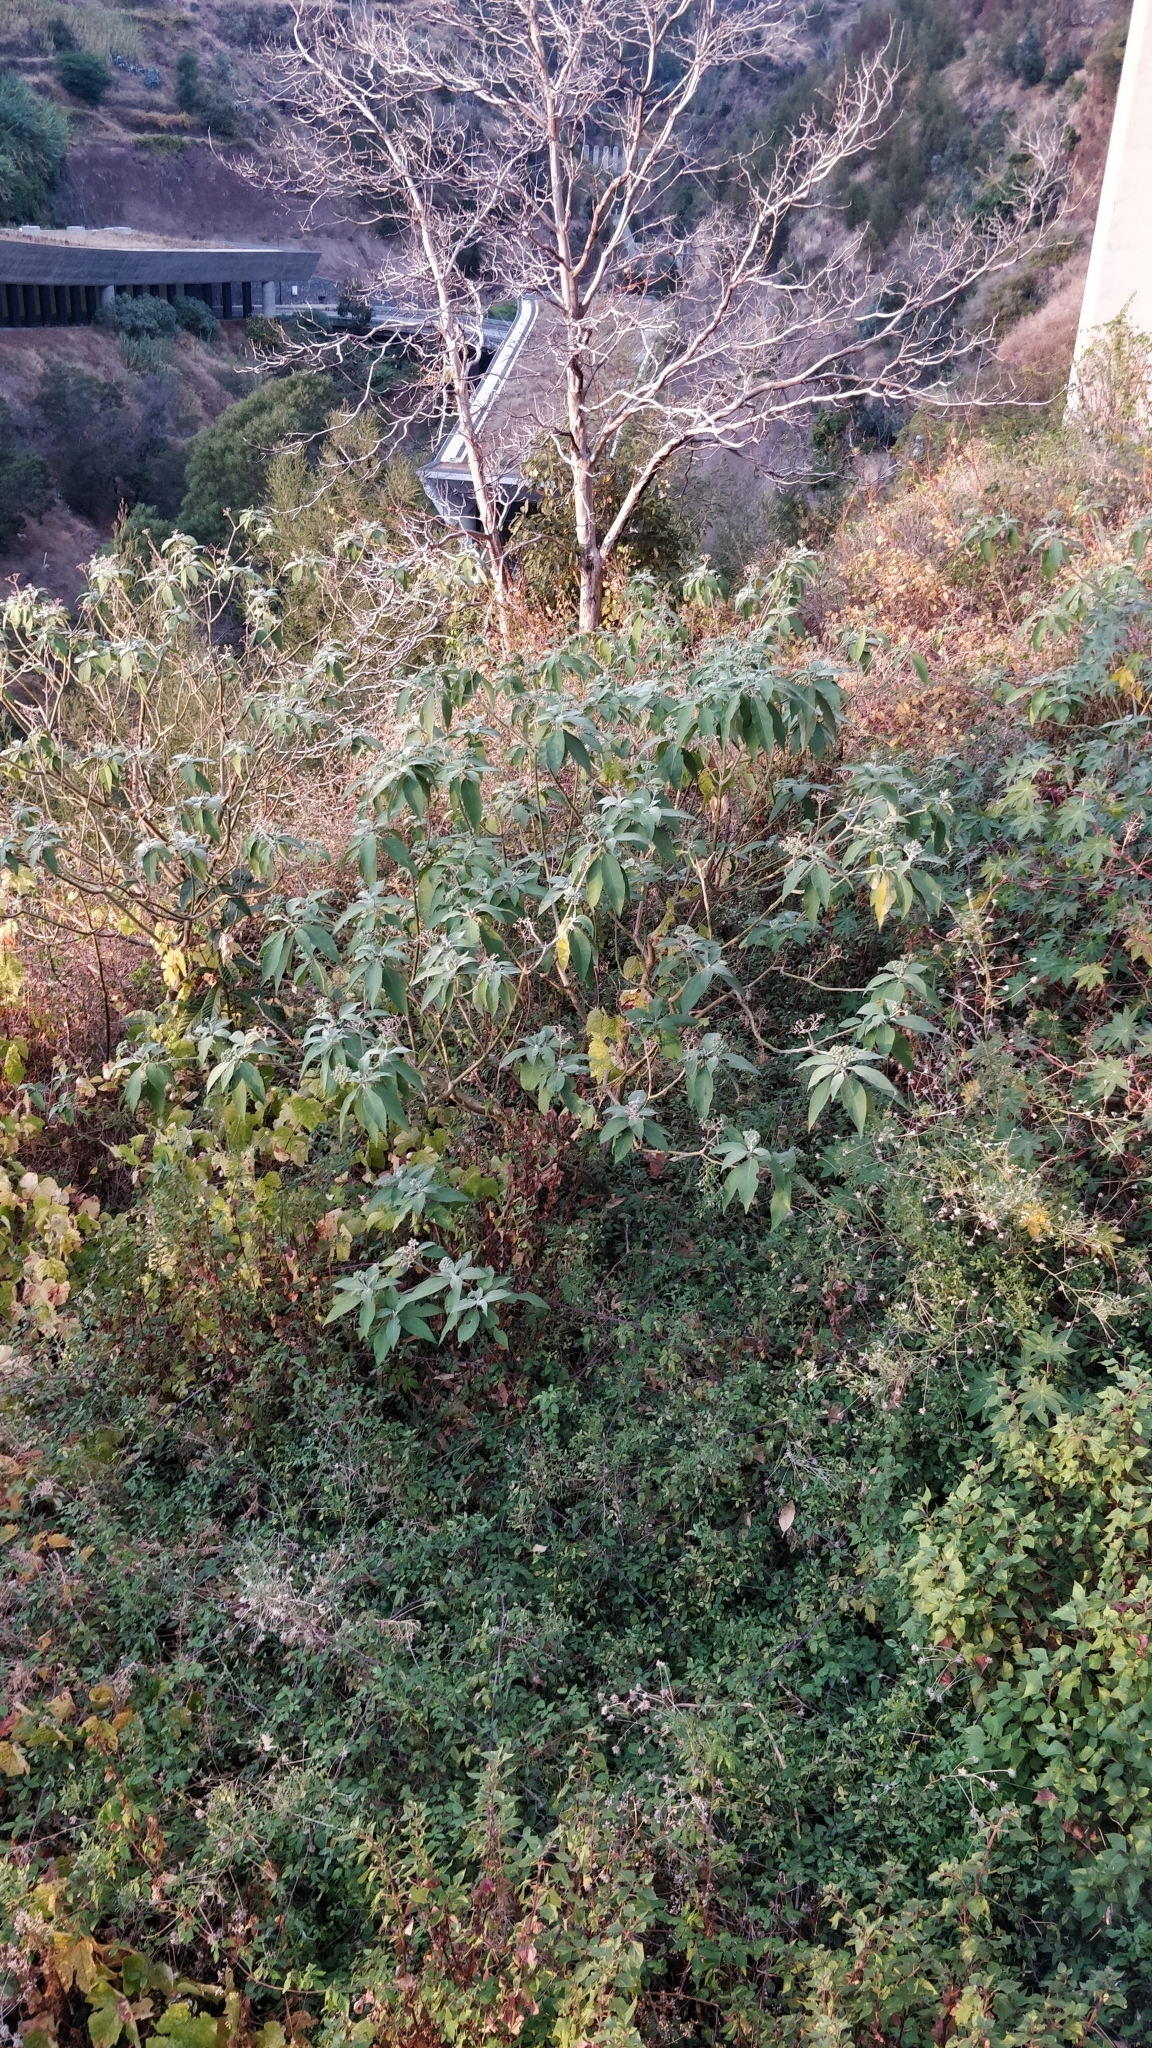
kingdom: Plantae
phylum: Tracheophyta
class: Magnoliopsida
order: Solanales
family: Solanaceae
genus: Solanum
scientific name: Solanum mauritianum
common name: Earleaf nightshade
